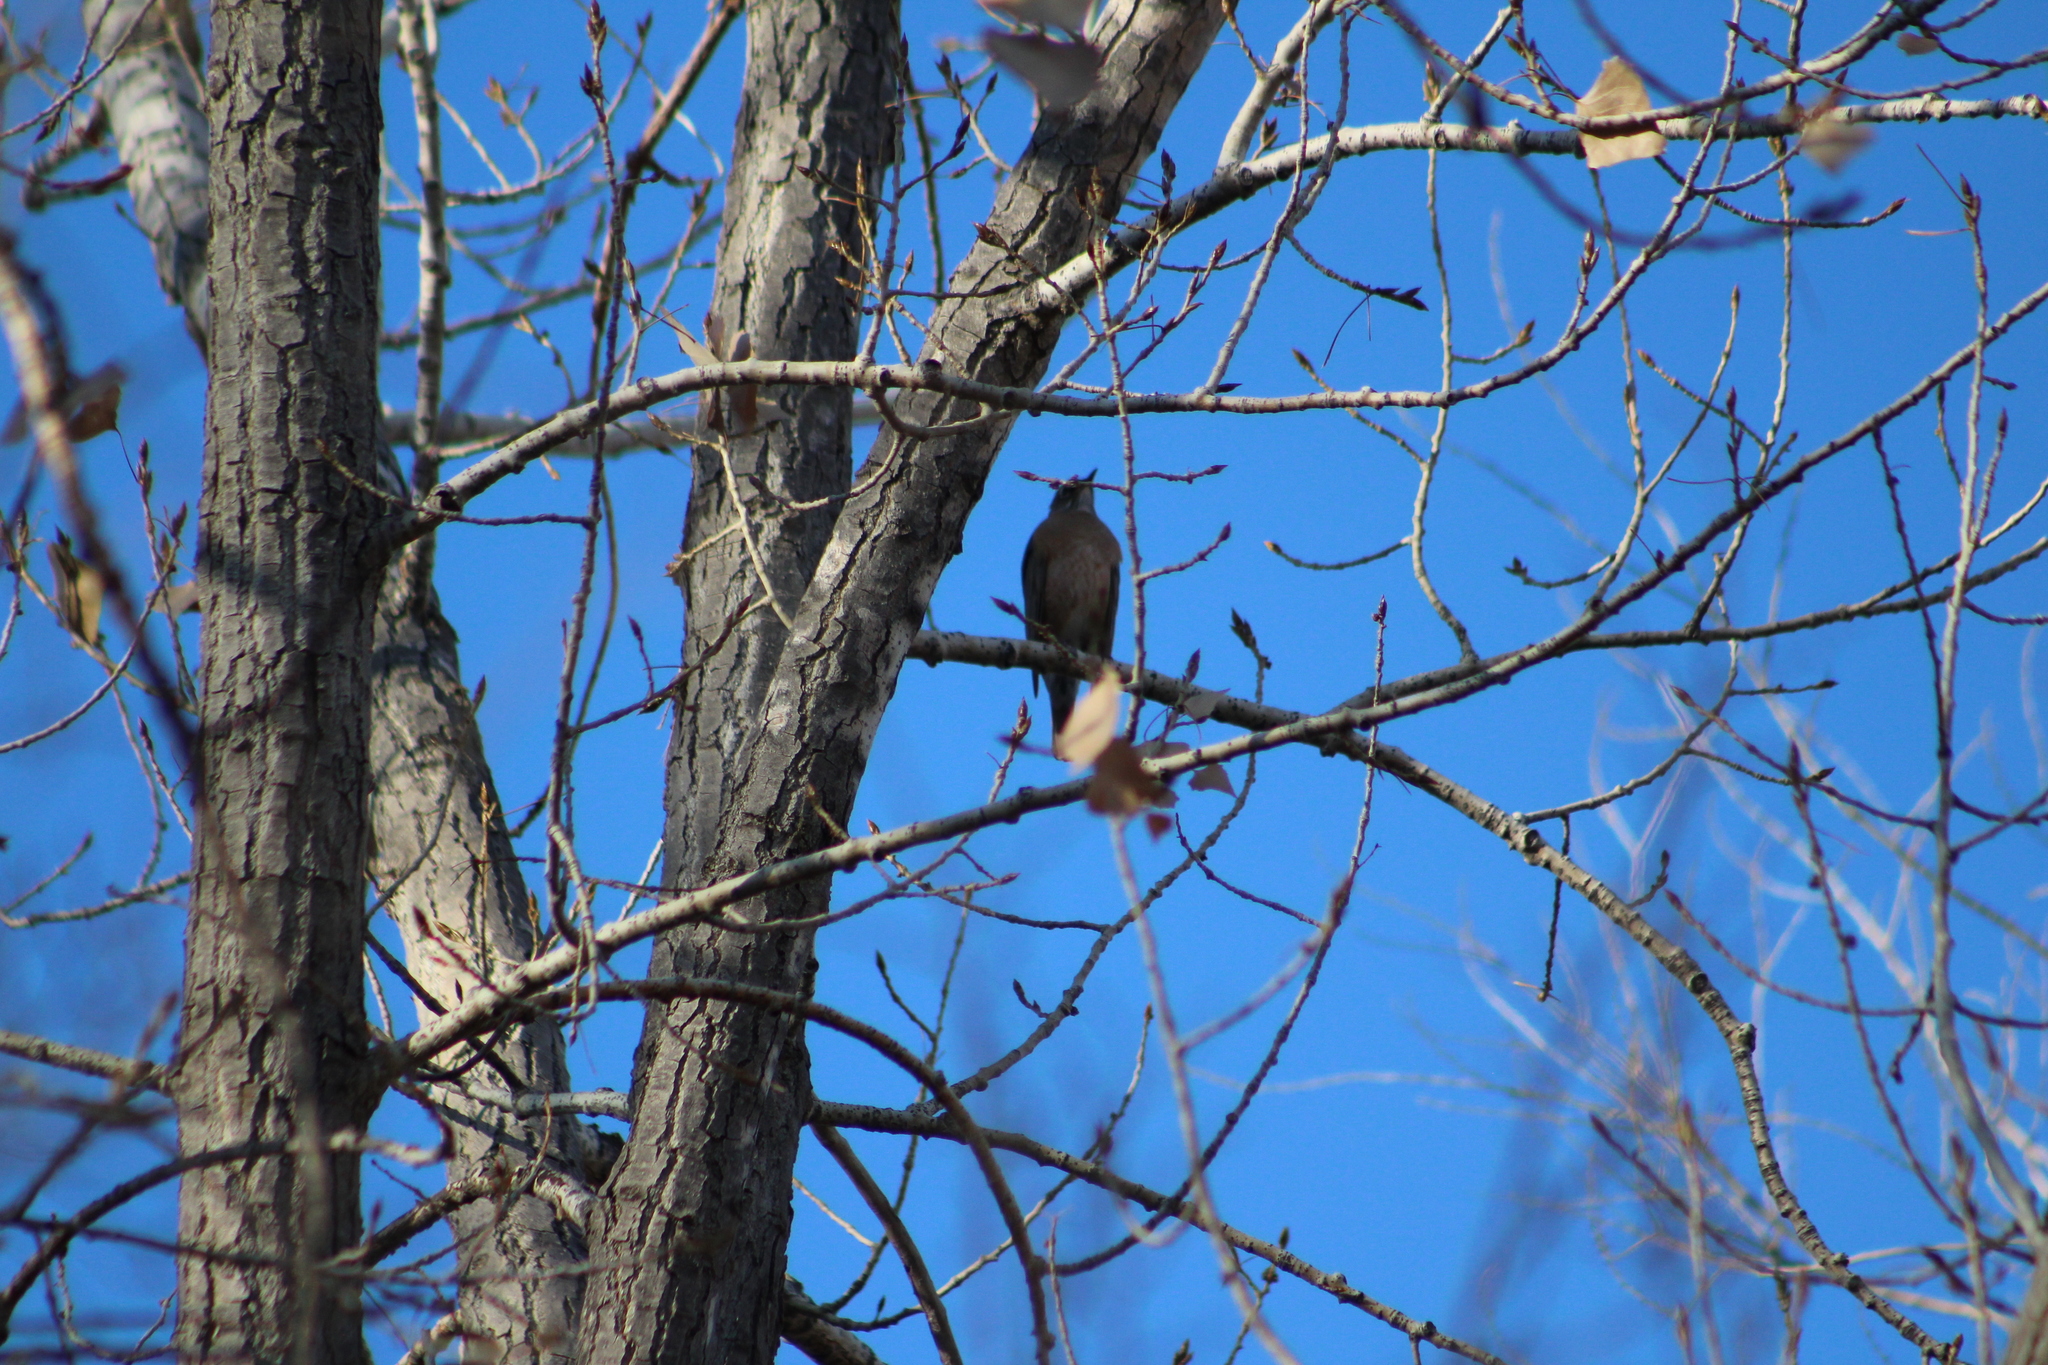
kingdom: Animalia
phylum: Chordata
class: Aves
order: Passeriformes
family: Turdidae
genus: Turdus
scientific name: Turdus migratorius
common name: American robin
